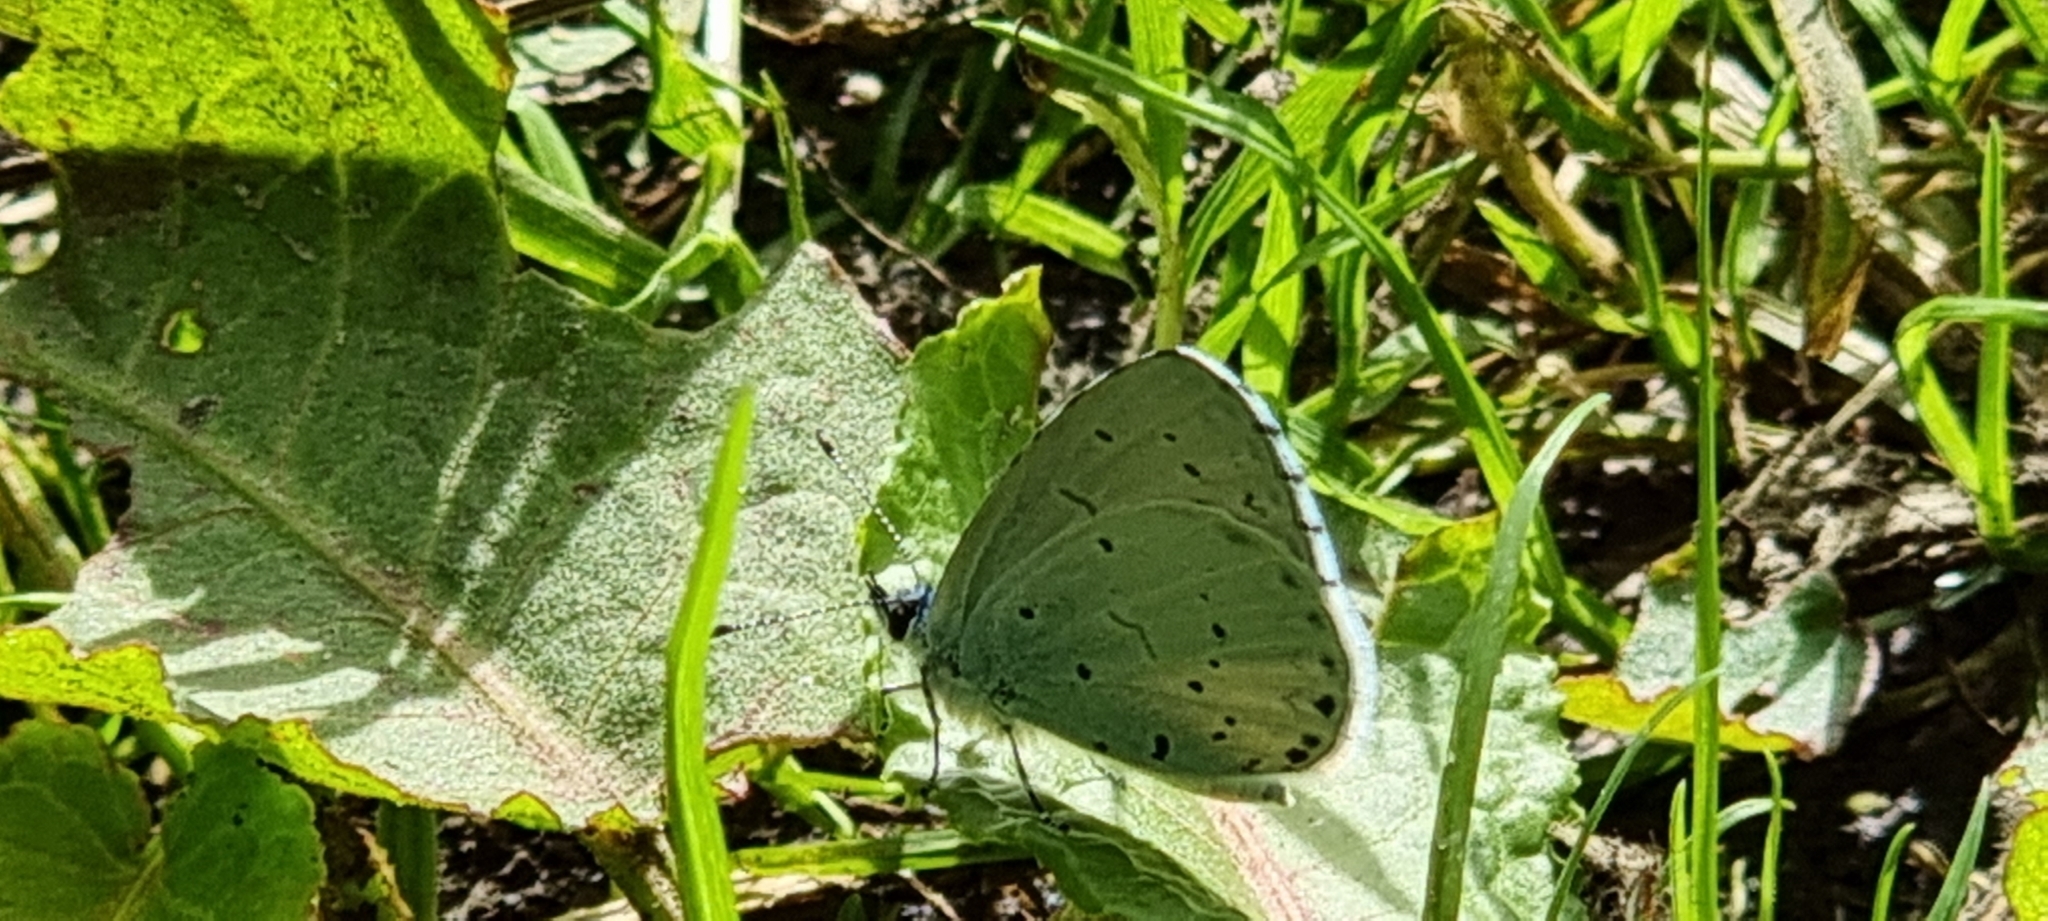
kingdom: Animalia
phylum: Arthropoda
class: Insecta
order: Lepidoptera
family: Lycaenidae
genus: Celastrina
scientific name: Celastrina argiolus
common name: Holly blue
